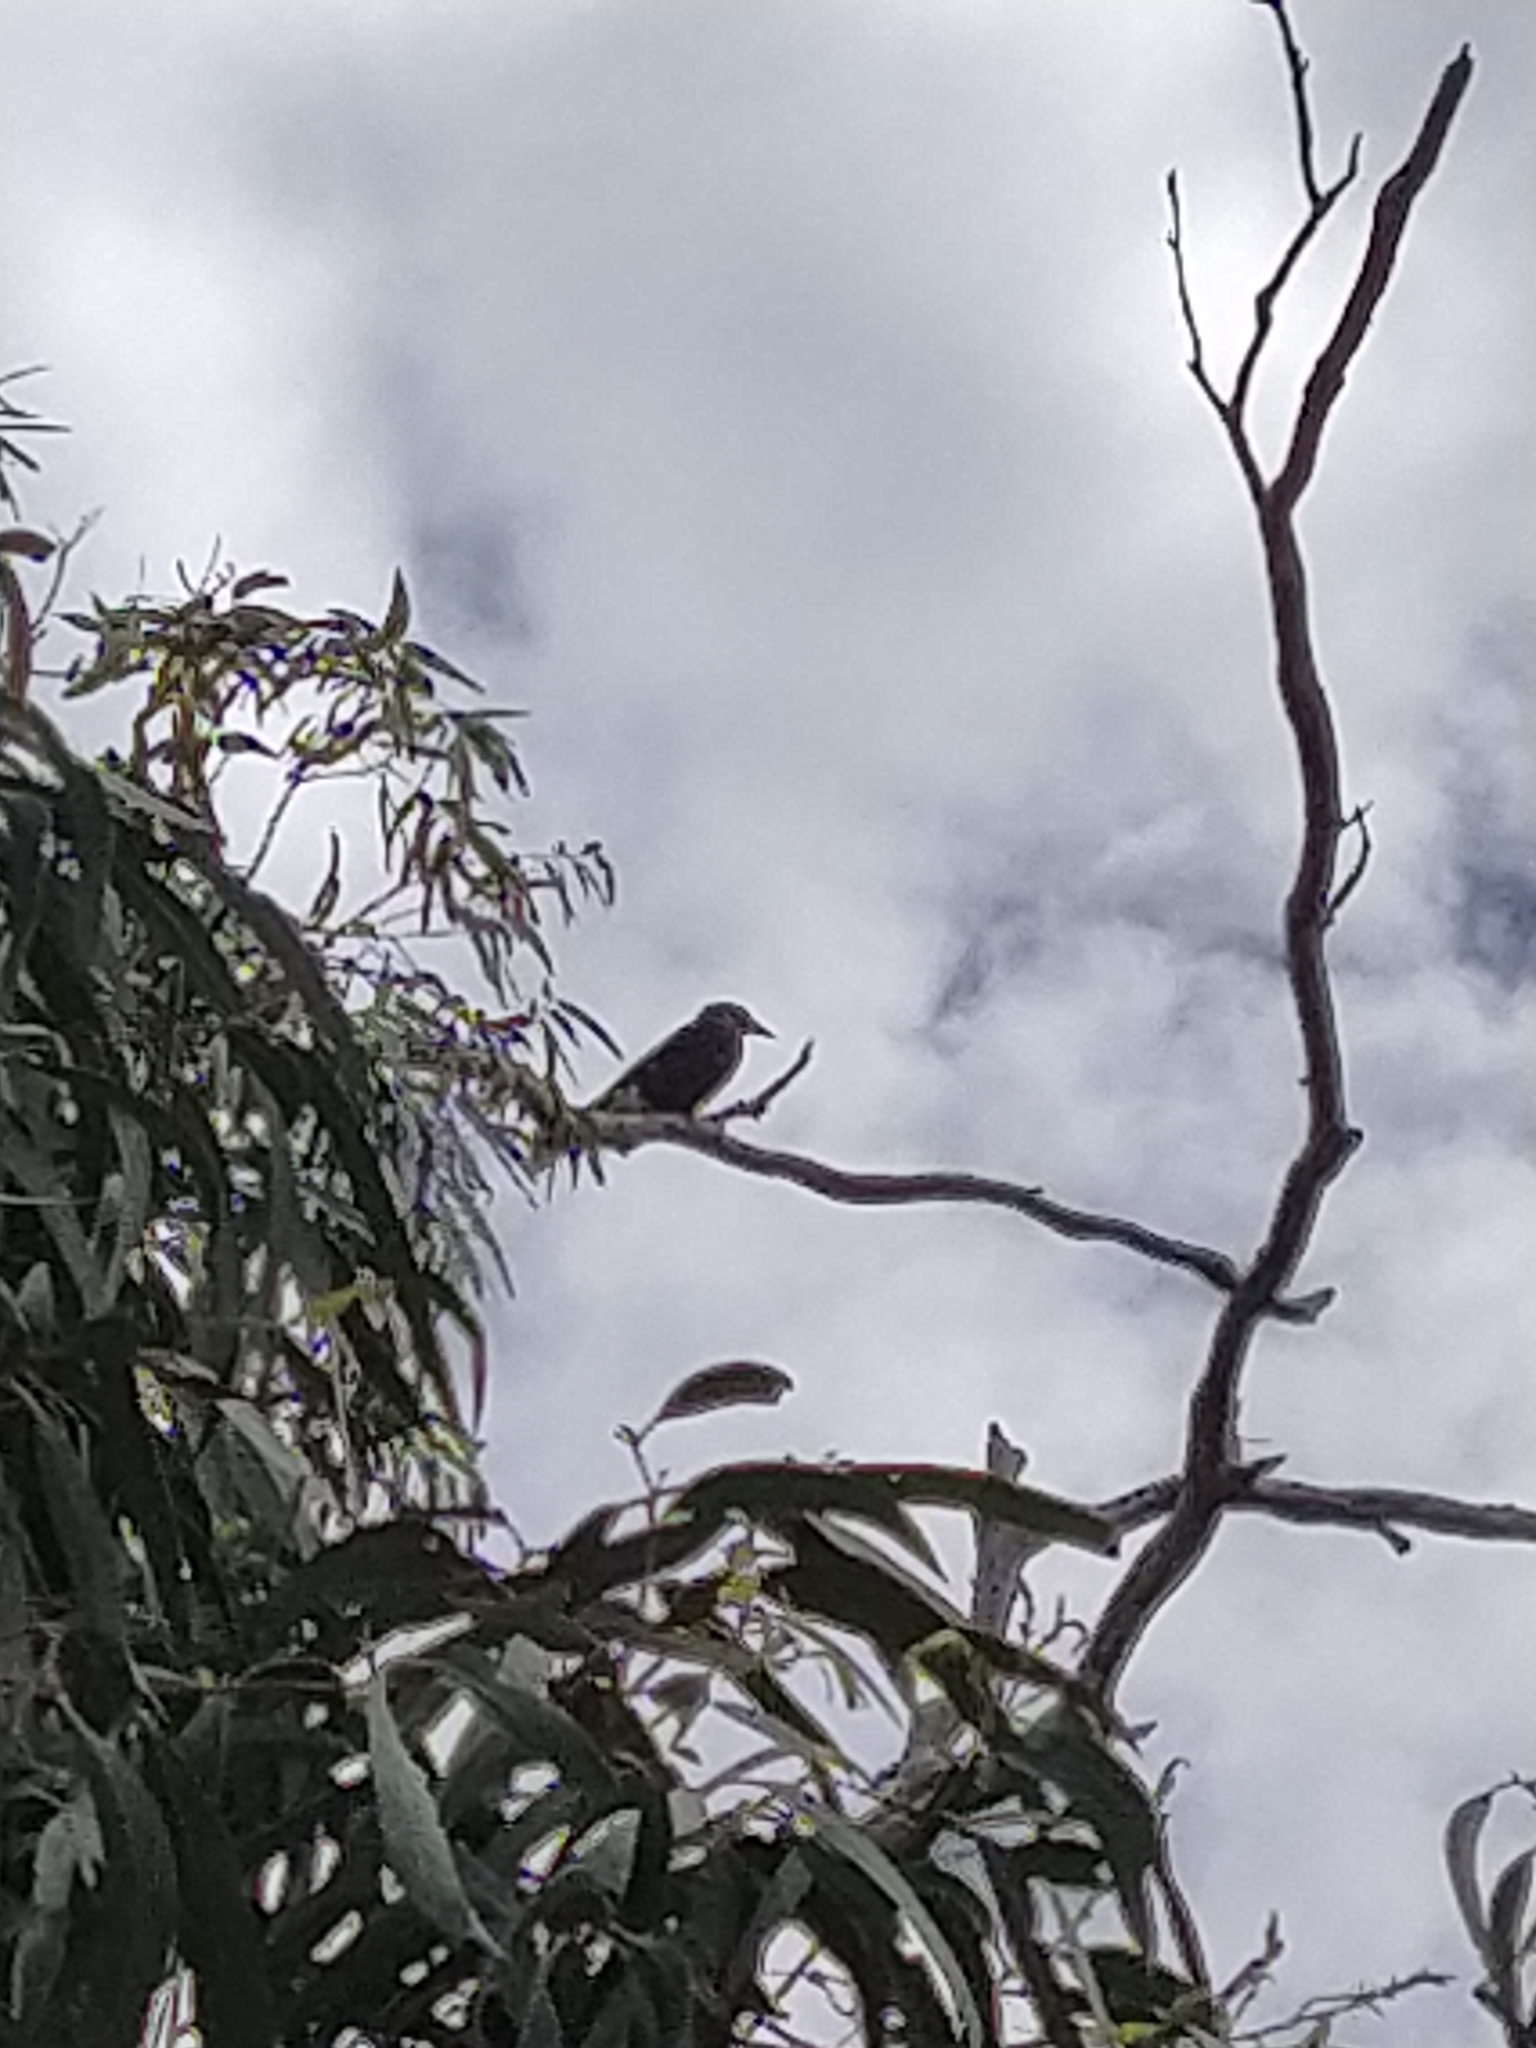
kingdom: Animalia
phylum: Chordata
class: Aves
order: Passeriformes
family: Cracticidae
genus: Strepera
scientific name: Strepera graculina
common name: Pied currawong
